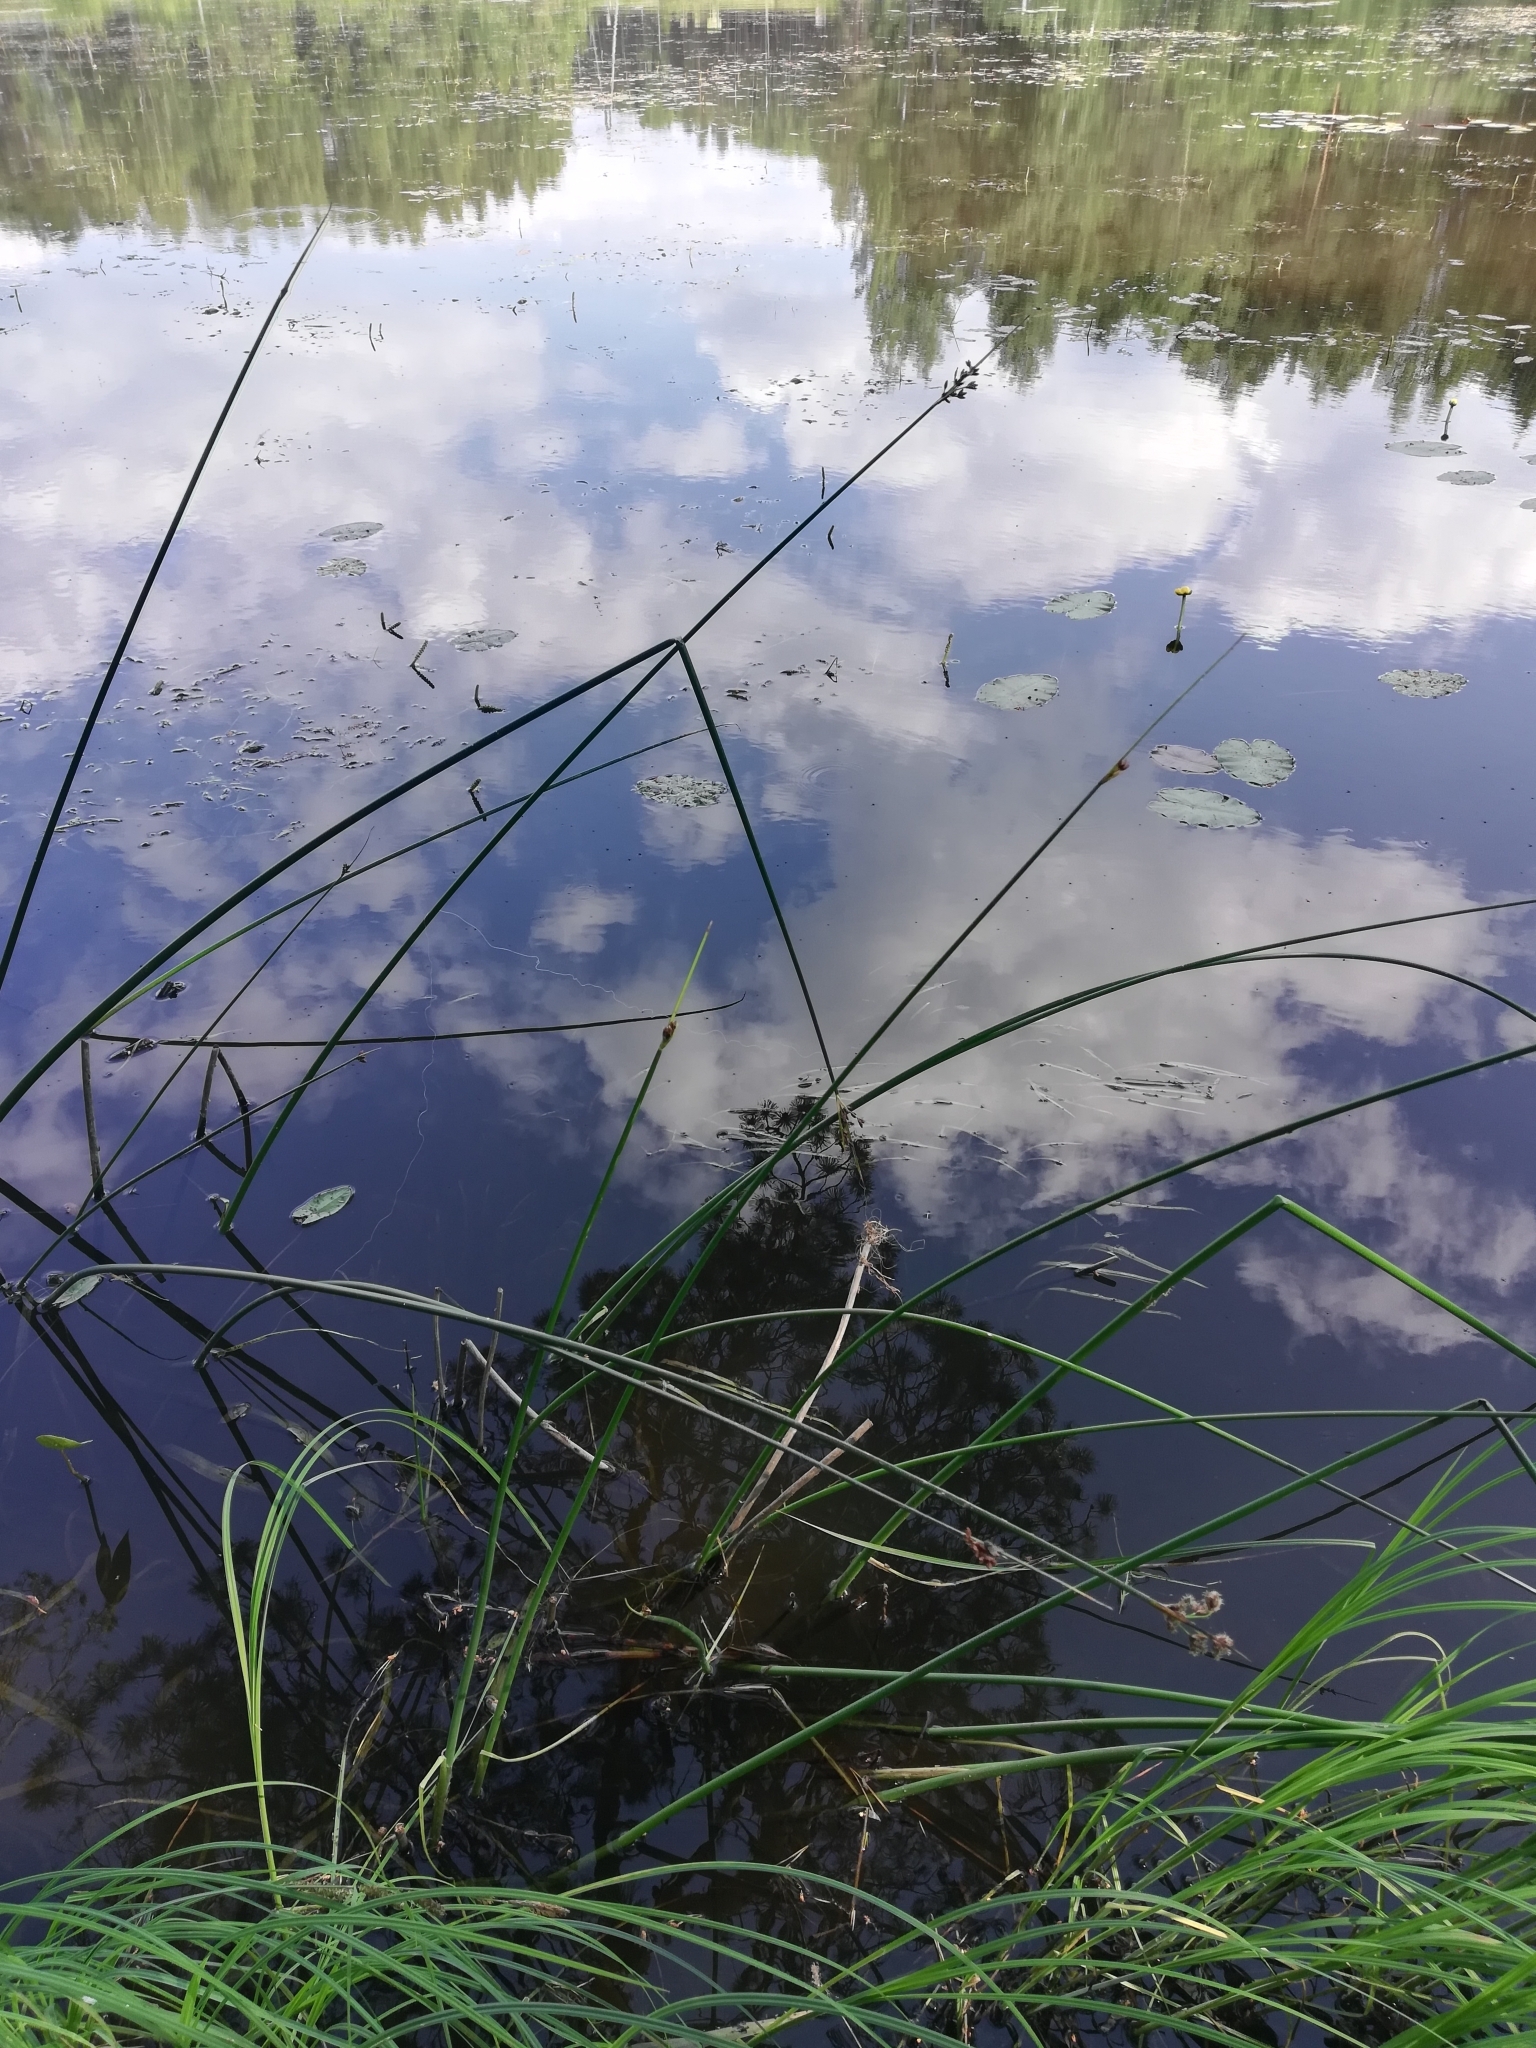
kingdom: Plantae
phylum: Tracheophyta
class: Liliopsida
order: Poales
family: Cyperaceae
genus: Schoenoplectus
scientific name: Schoenoplectus lacustris
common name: Common club-rush
